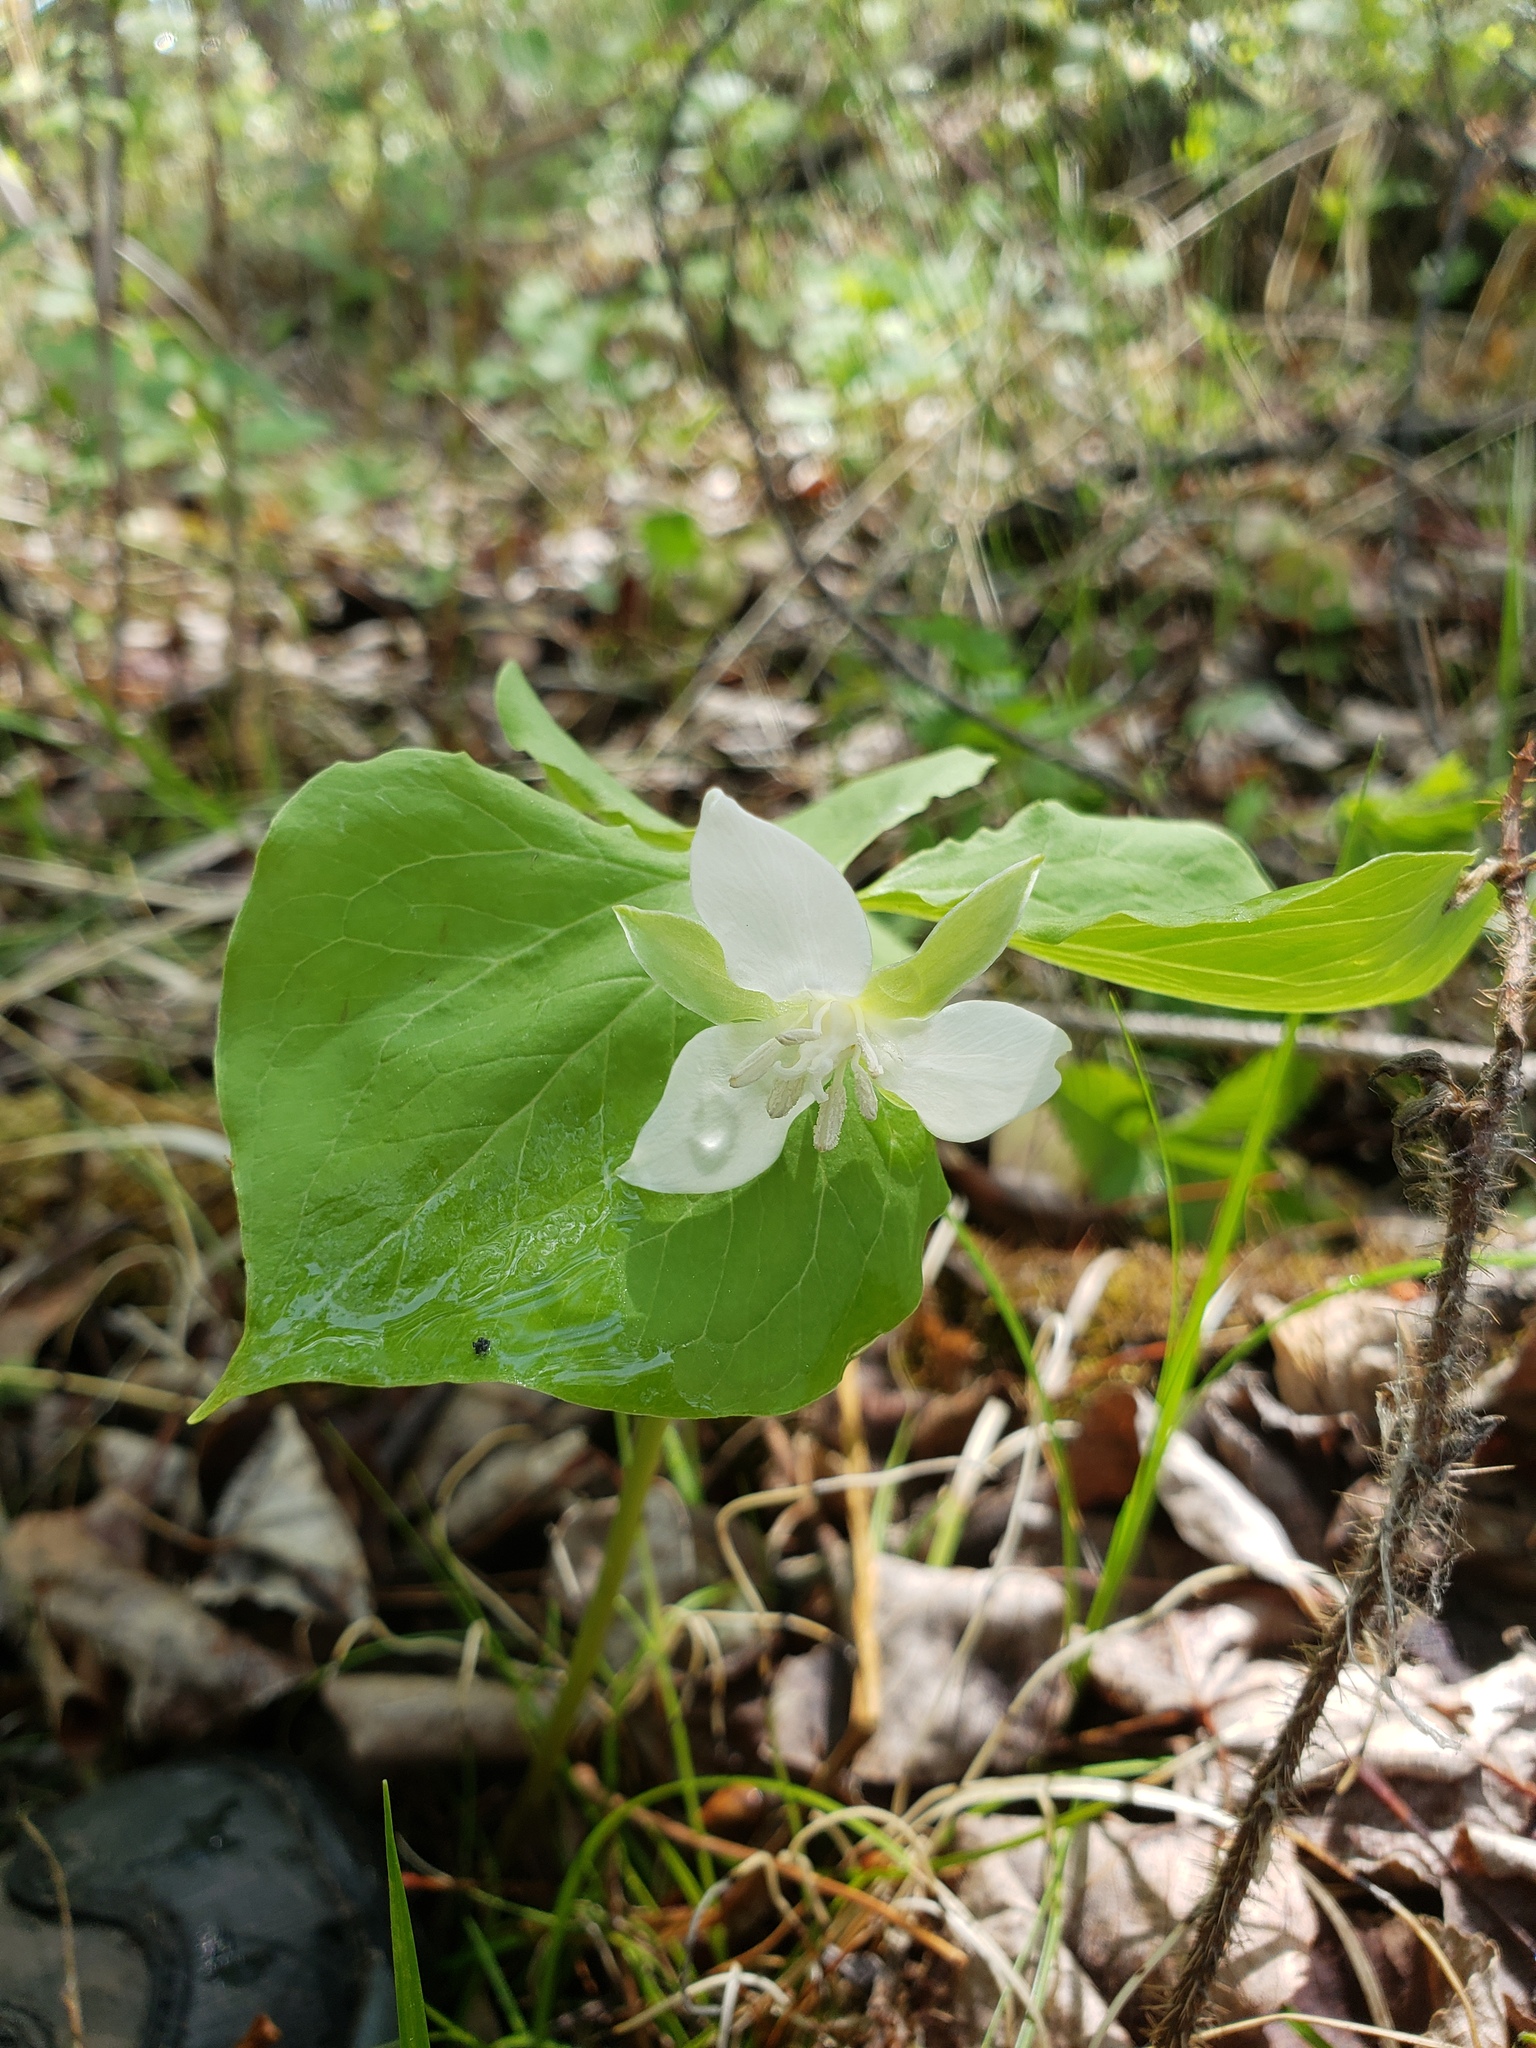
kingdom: Plantae
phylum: Tracheophyta
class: Liliopsida
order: Liliales
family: Melanthiaceae
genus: Trillium
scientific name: Trillium cernuum
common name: Nodding trillium
